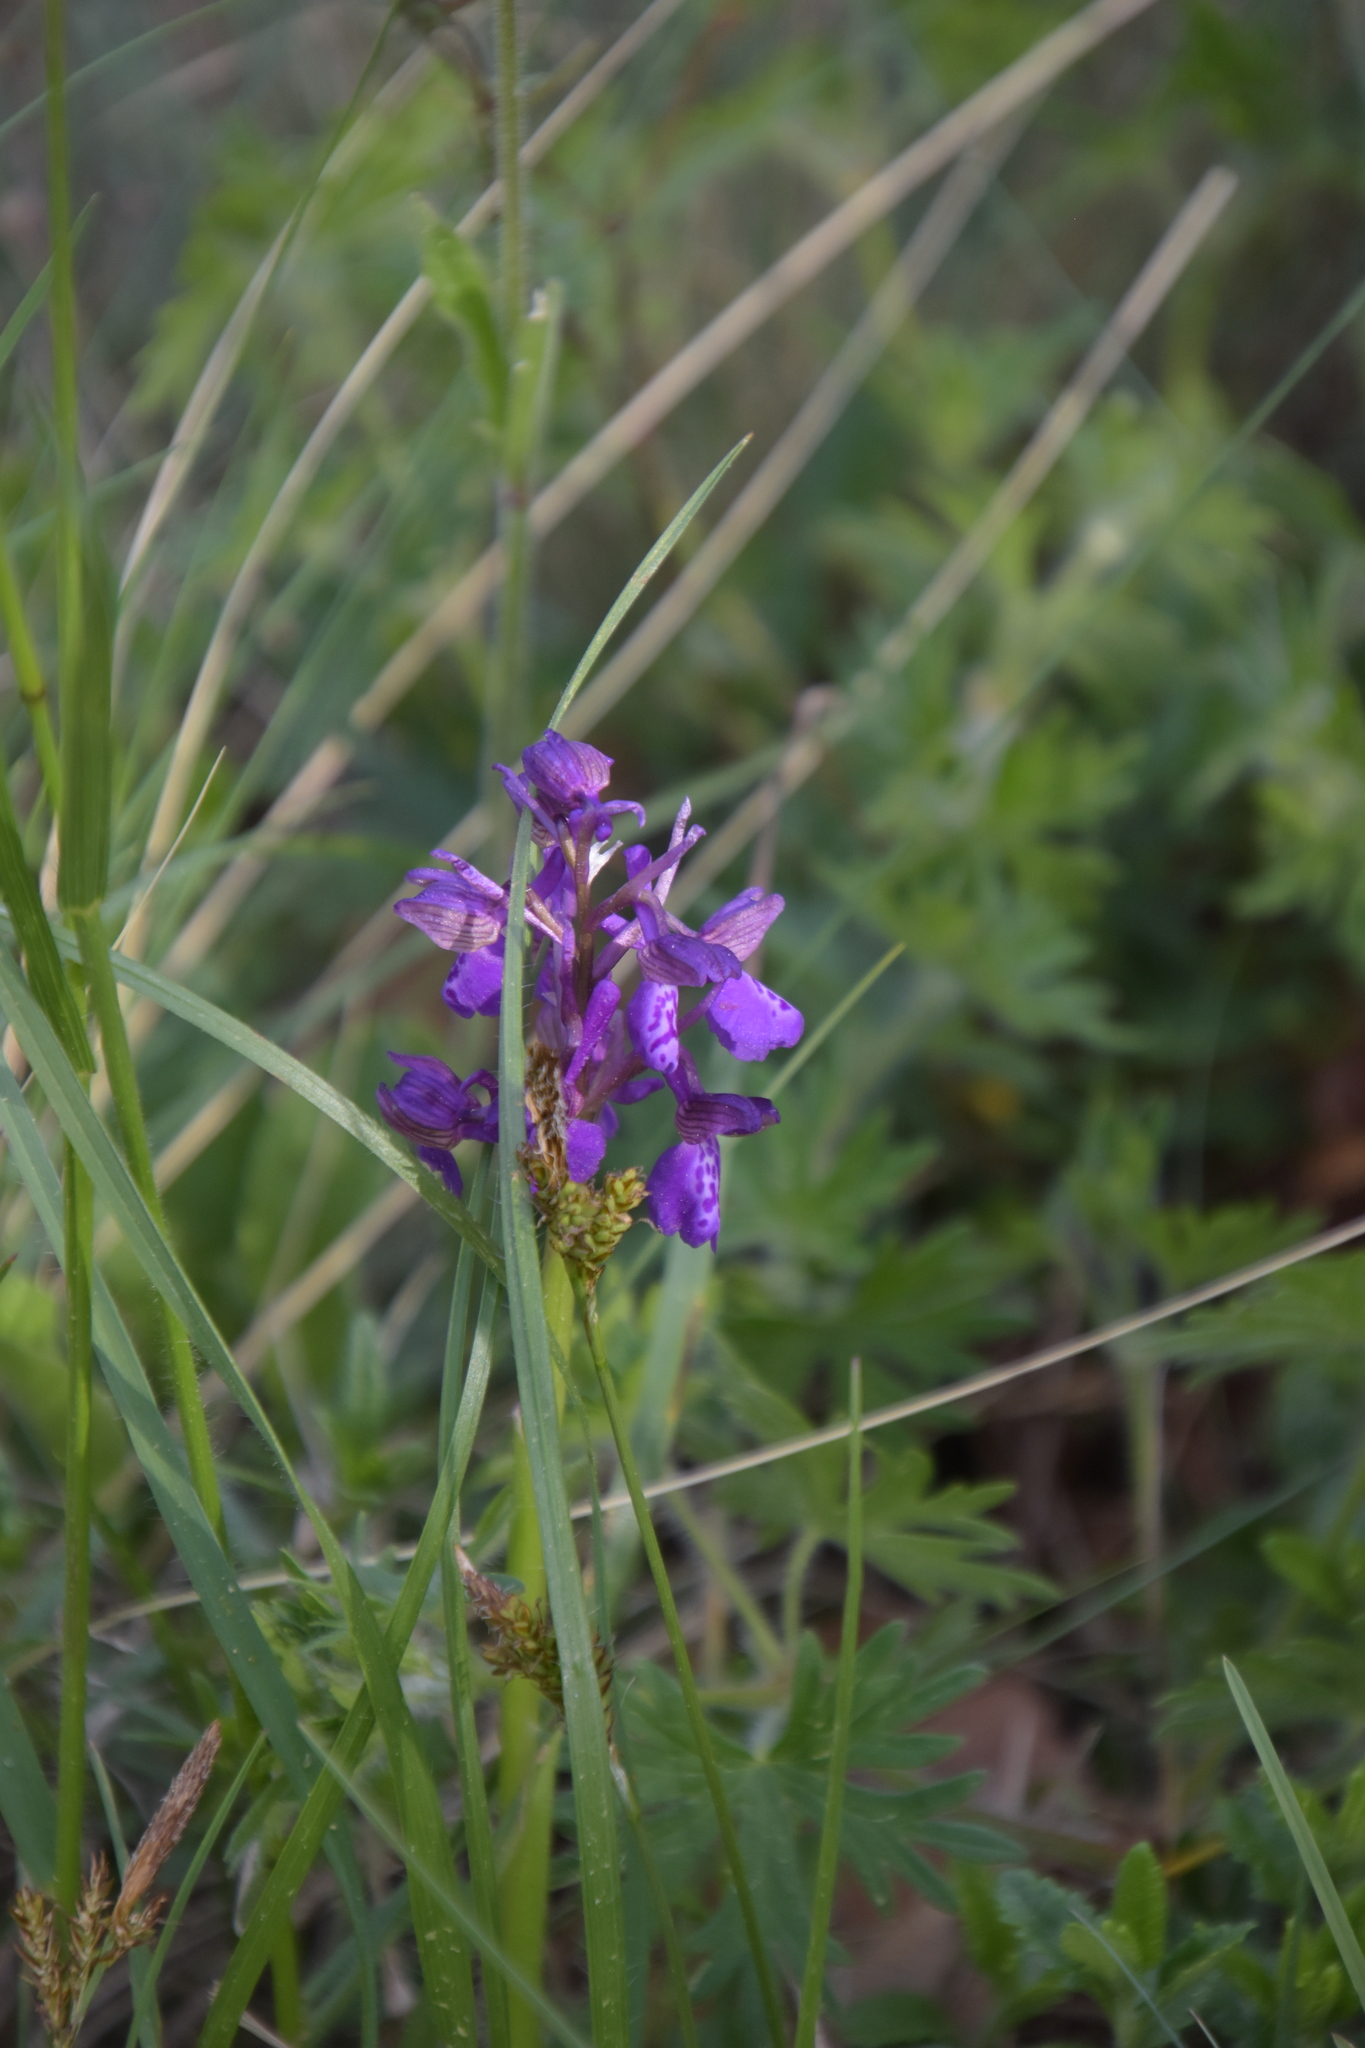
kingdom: Plantae
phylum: Tracheophyta
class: Liliopsida
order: Asparagales
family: Orchidaceae
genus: Anacamptis
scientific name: Anacamptis morio
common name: Green-winged orchid
